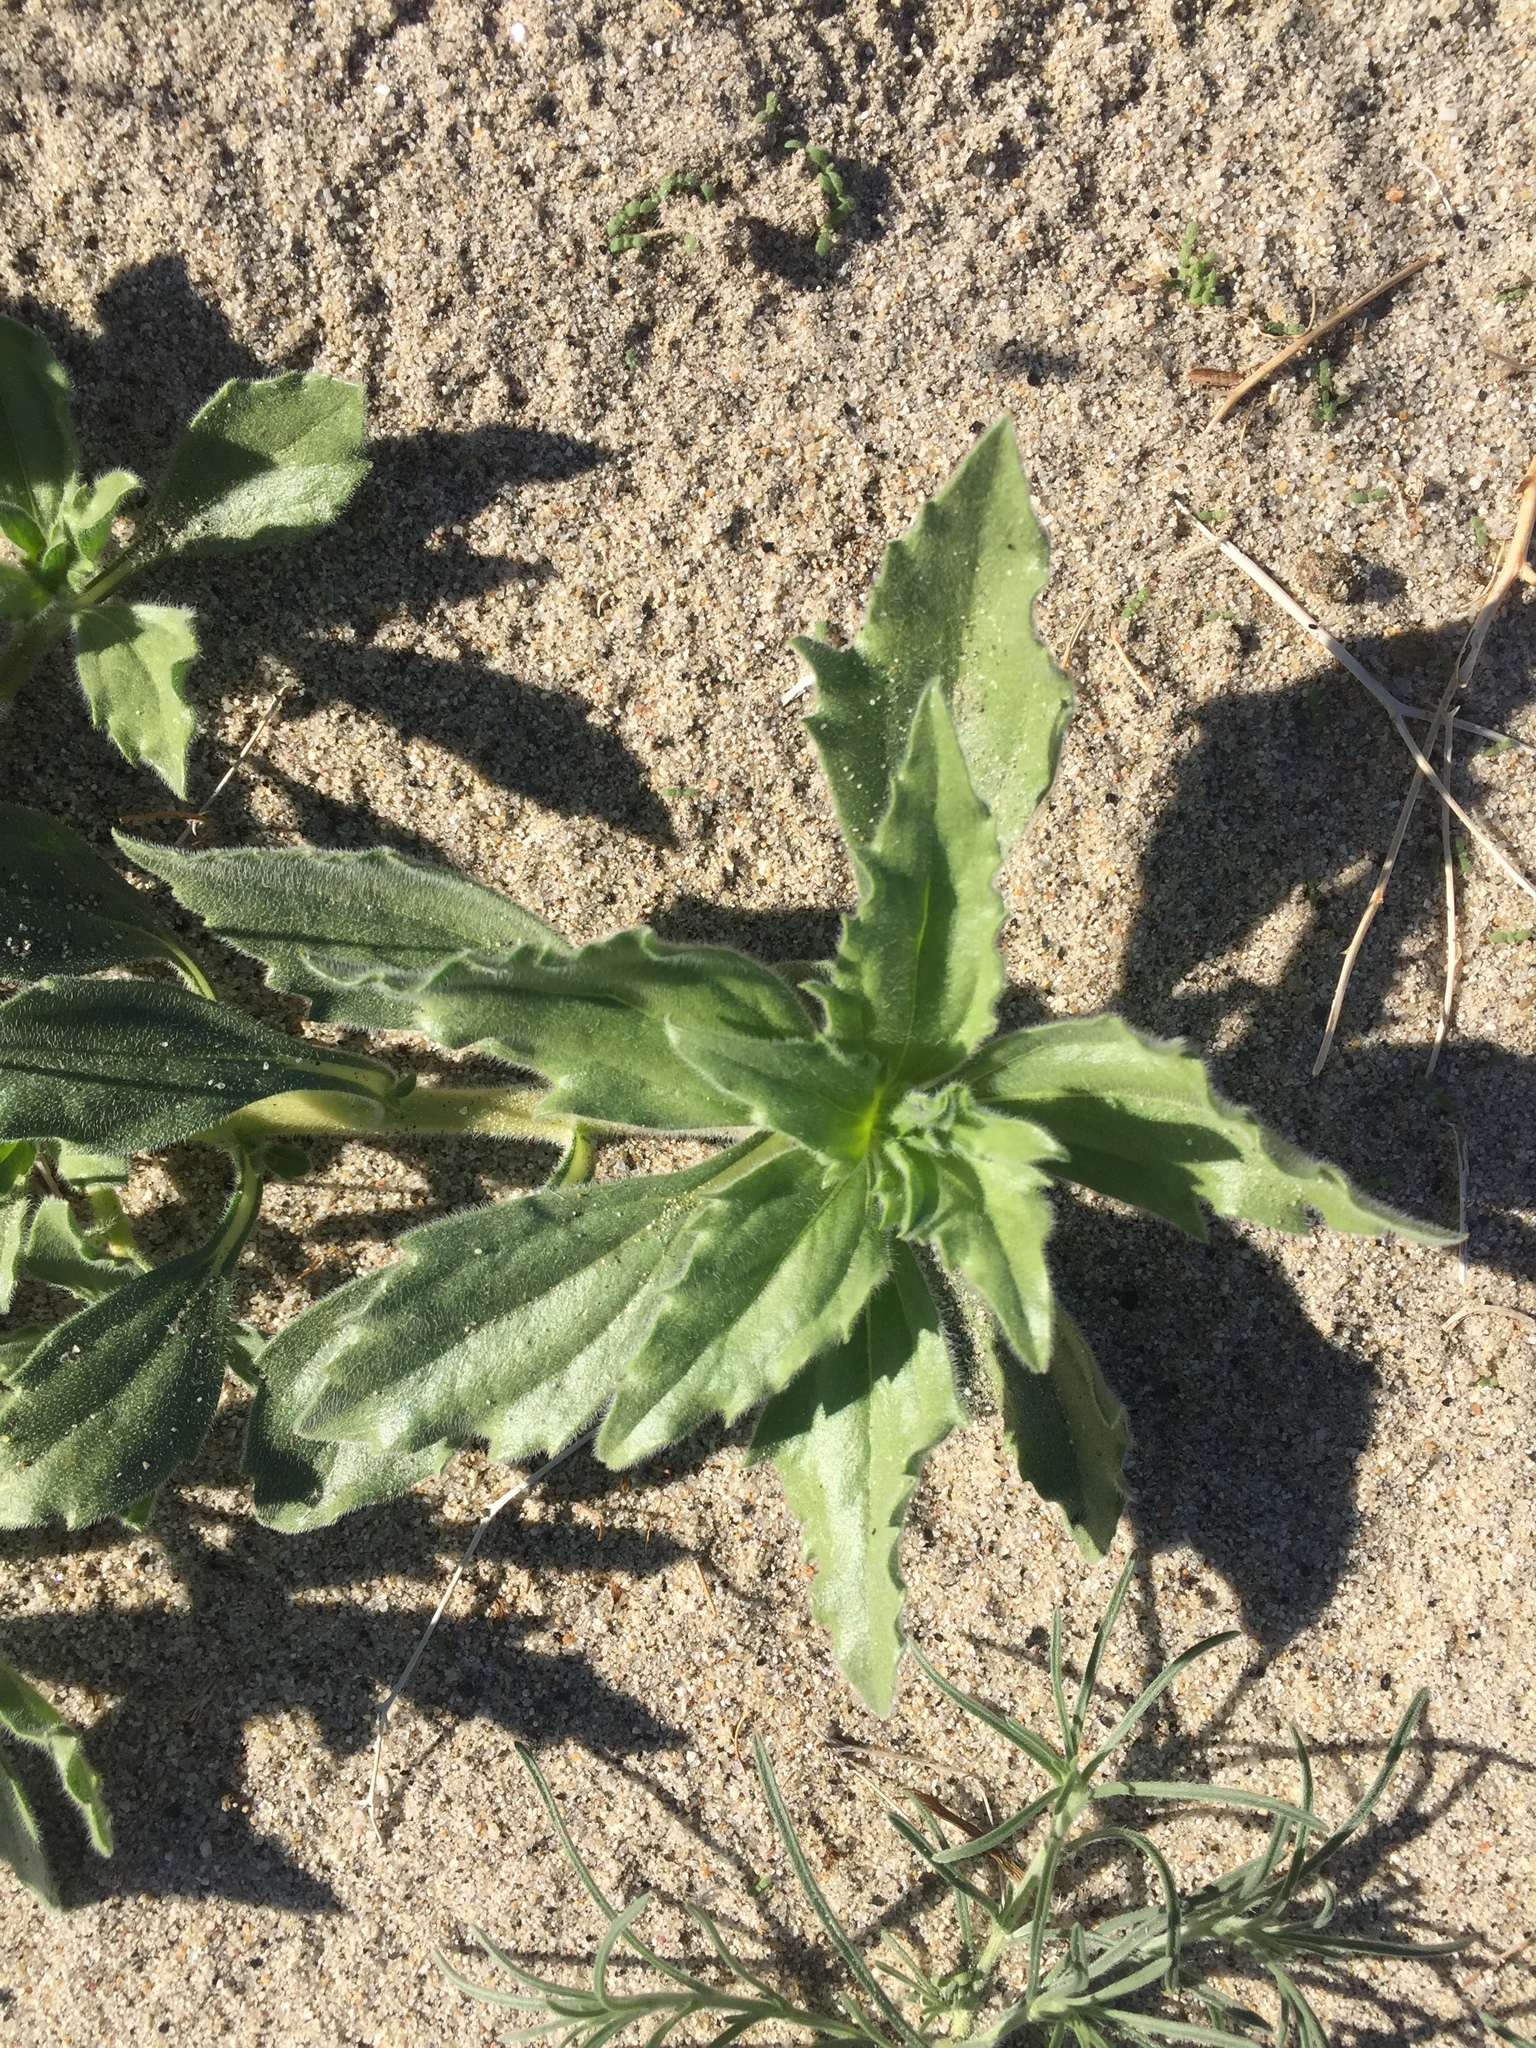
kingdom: Plantae
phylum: Tracheophyta
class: Magnoliopsida
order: Asterales
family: Asteraceae
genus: Geraea
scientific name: Geraea canescens
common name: Desert-gold
